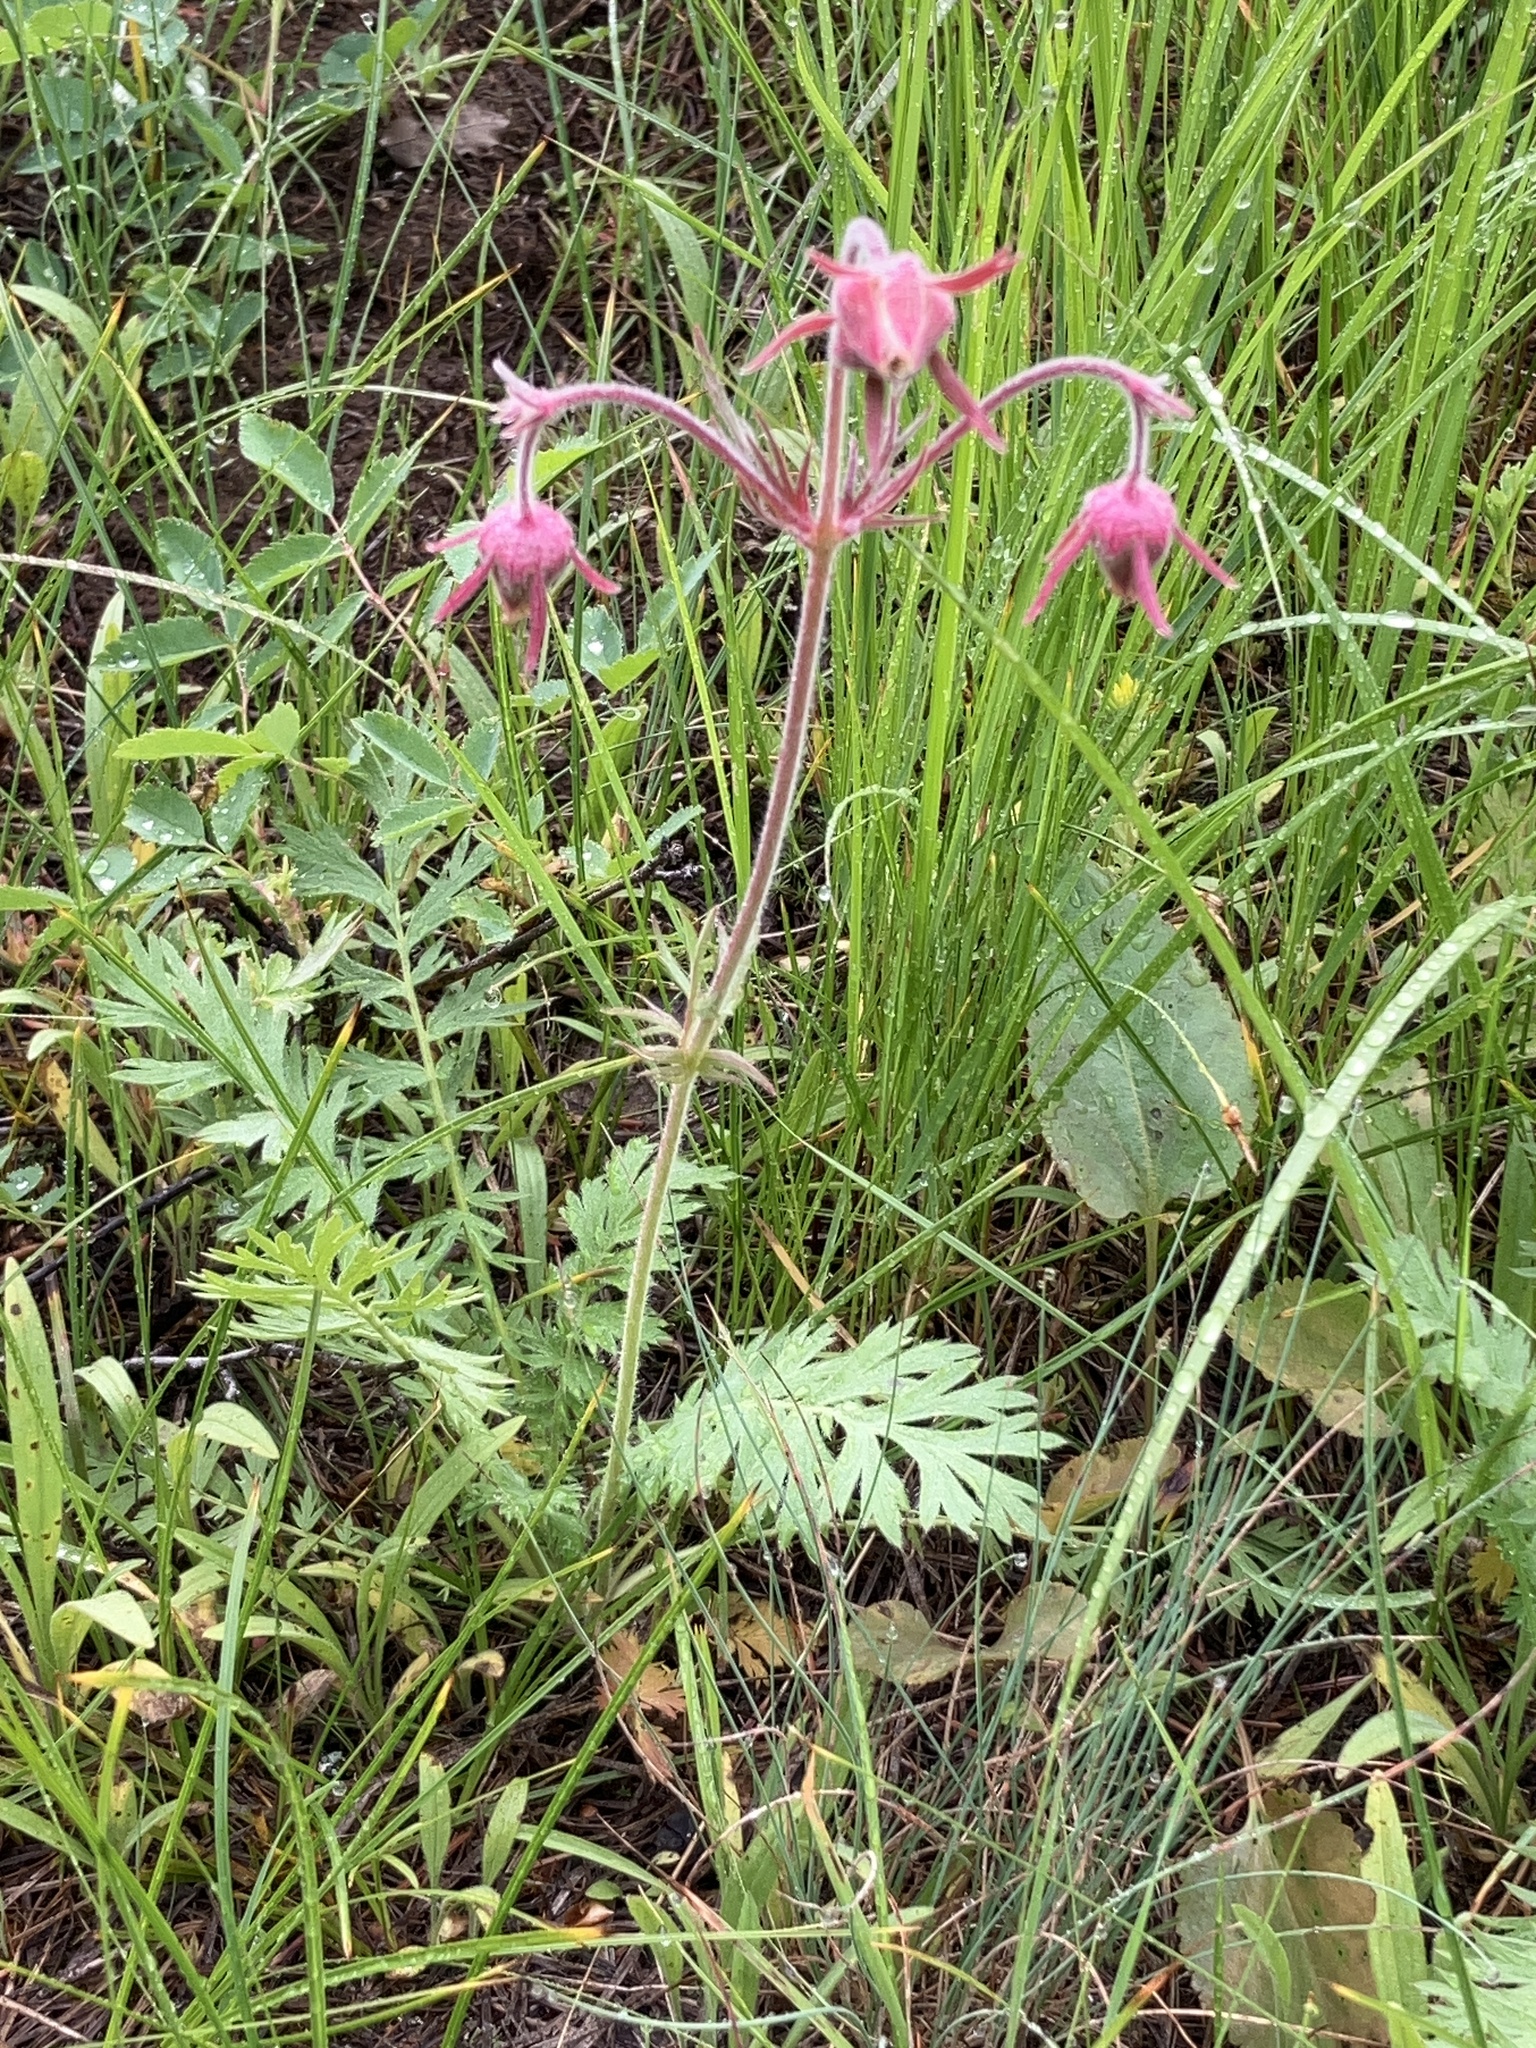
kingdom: Plantae
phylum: Tracheophyta
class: Magnoliopsida
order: Rosales
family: Rosaceae
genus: Geum
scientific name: Geum triflorum
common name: Old man's whiskers
